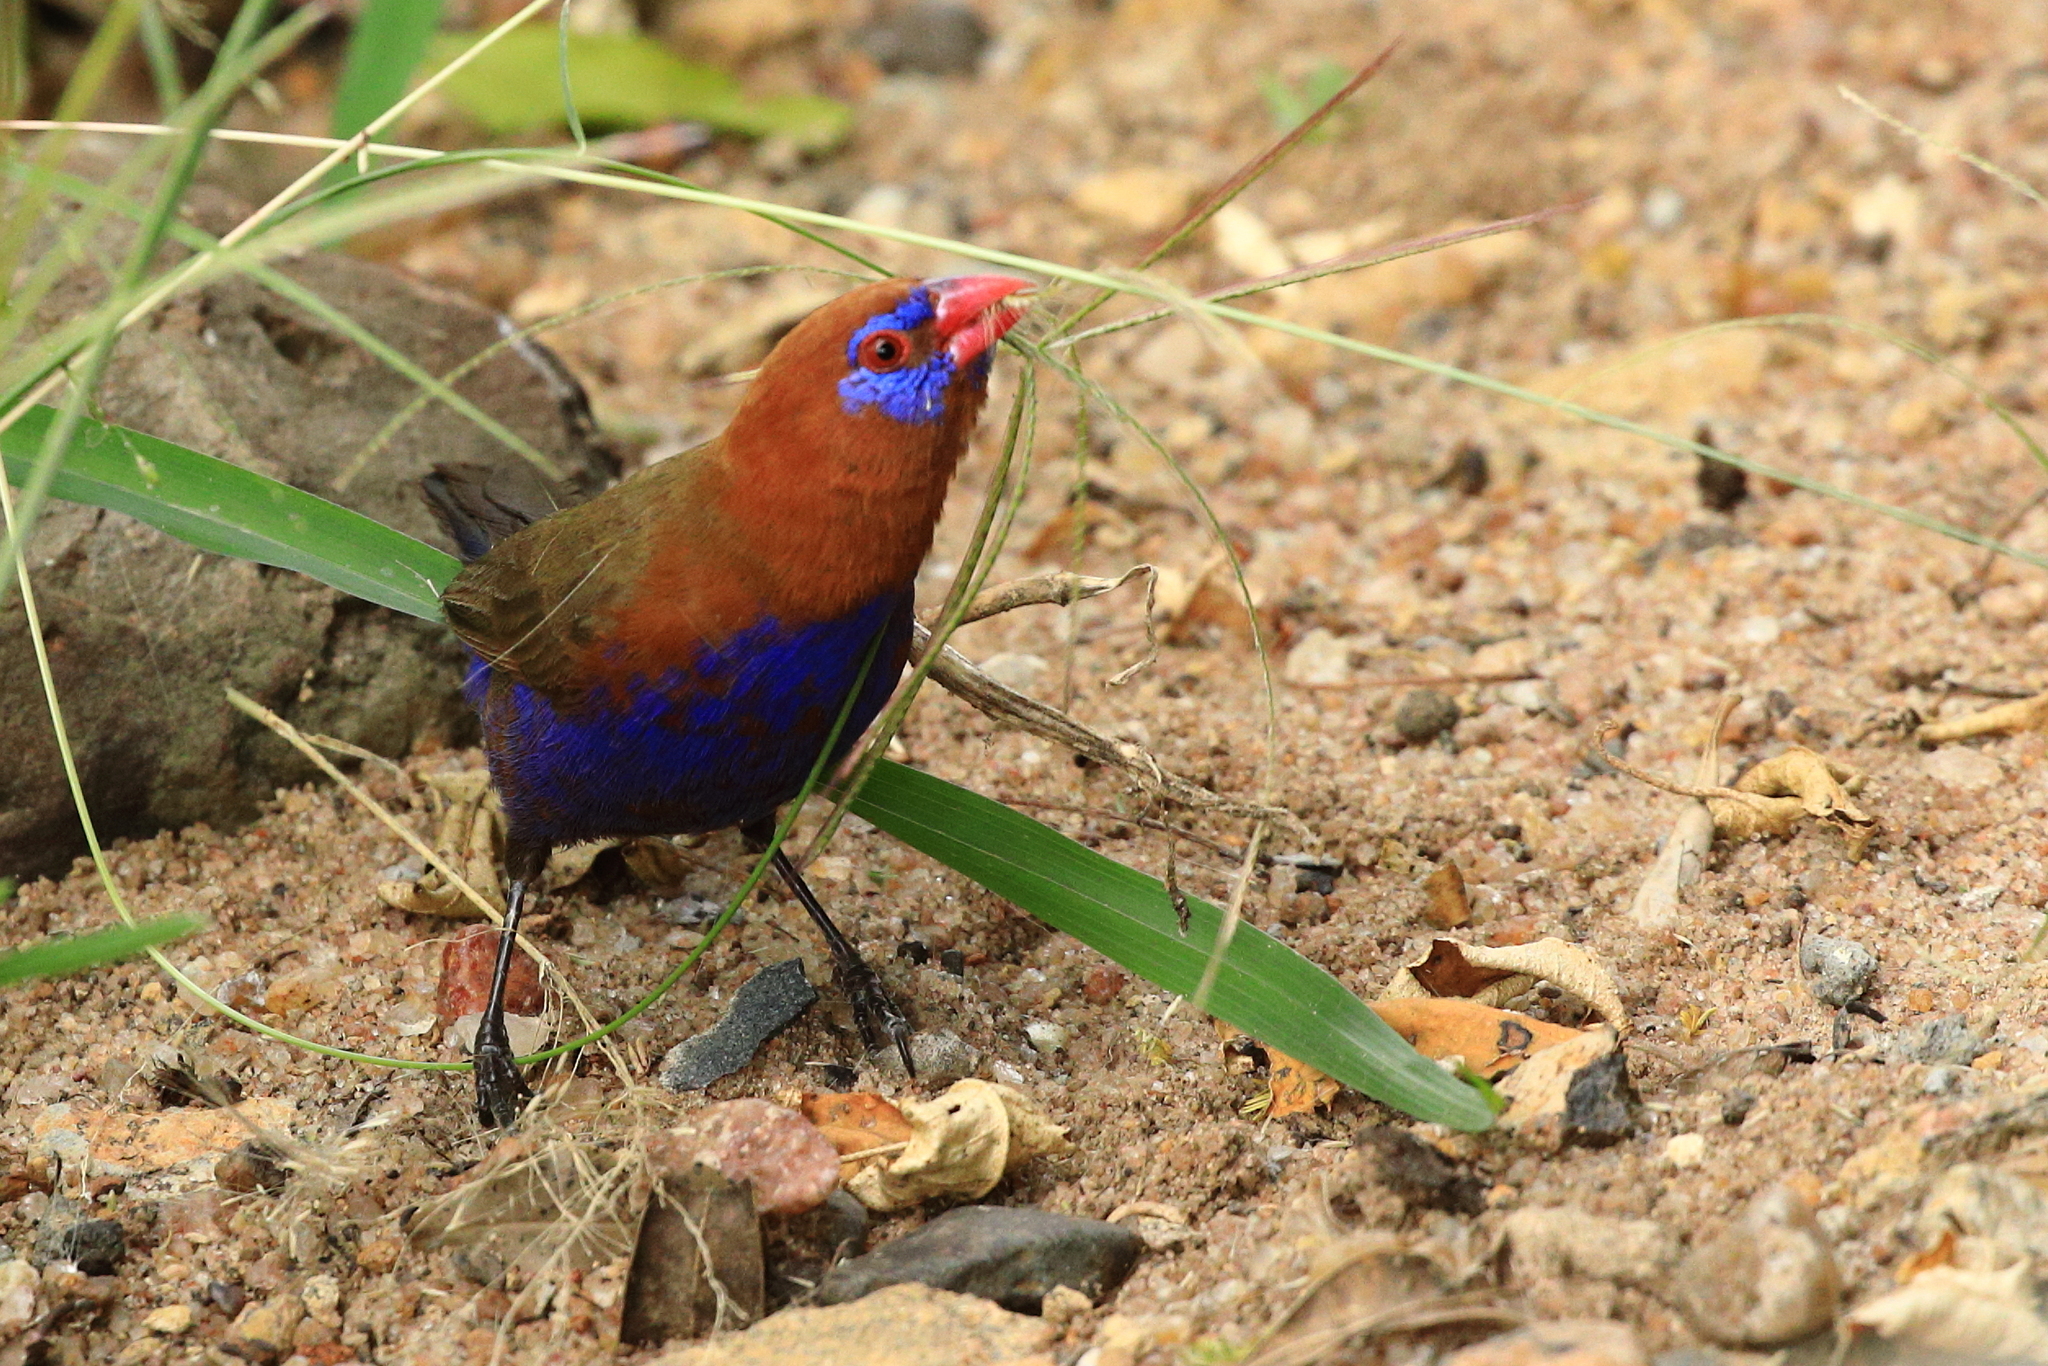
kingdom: Animalia
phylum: Chordata
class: Aves
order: Passeriformes
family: Estrildidae
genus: Uraeginthus
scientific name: Uraeginthus ianthinogaster
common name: Purple grenadier
